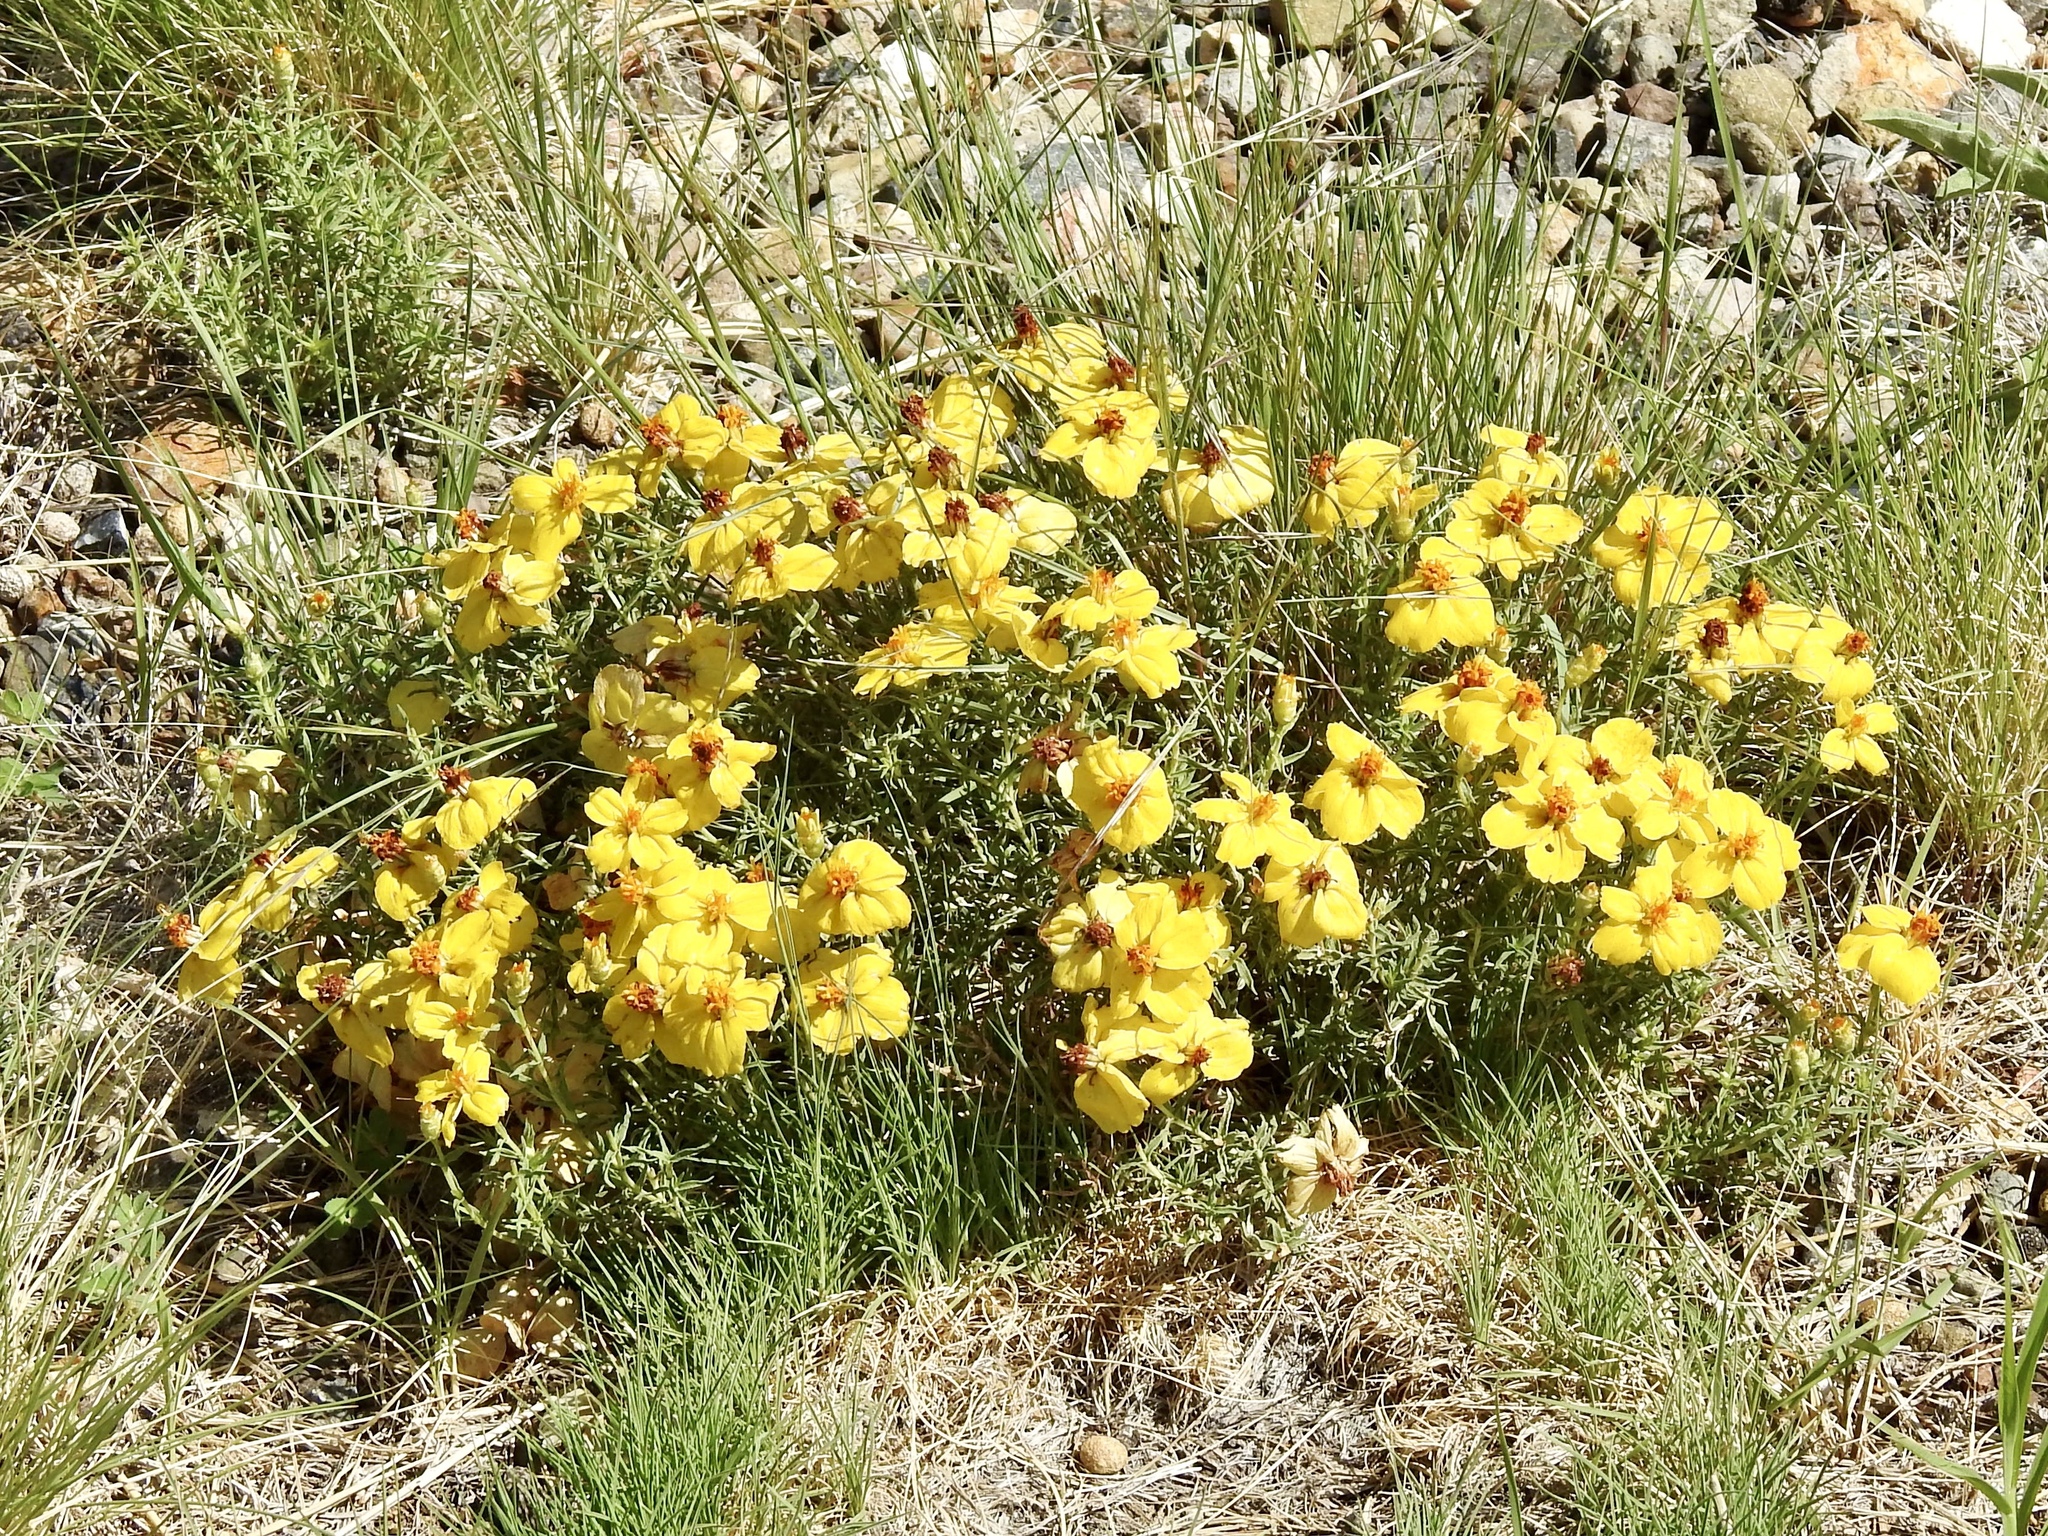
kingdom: Plantae
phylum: Tracheophyta
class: Magnoliopsida
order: Asterales
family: Asteraceae
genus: Zinnia
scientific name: Zinnia grandiflora
